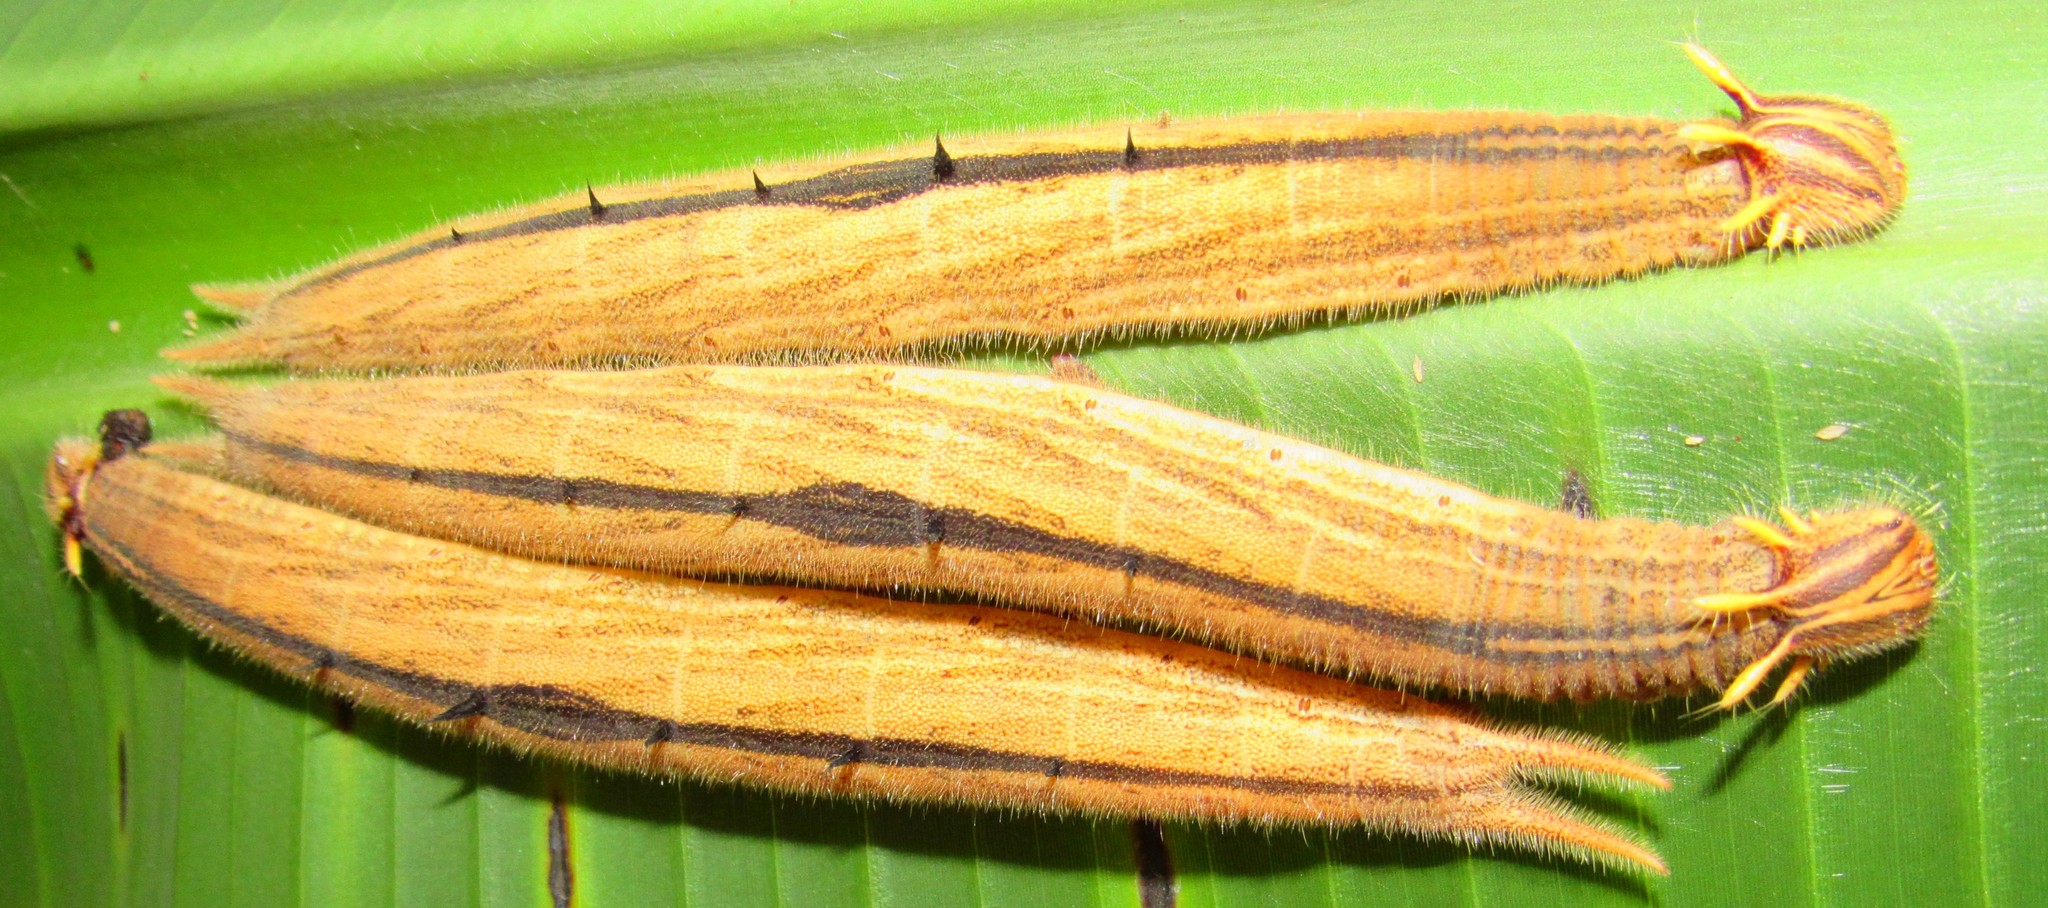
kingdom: Animalia
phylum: Arthropoda
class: Insecta
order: Lepidoptera
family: Nymphalidae
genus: Caligo
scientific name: Caligo brasiliensis
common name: Dark owl-butterfly
